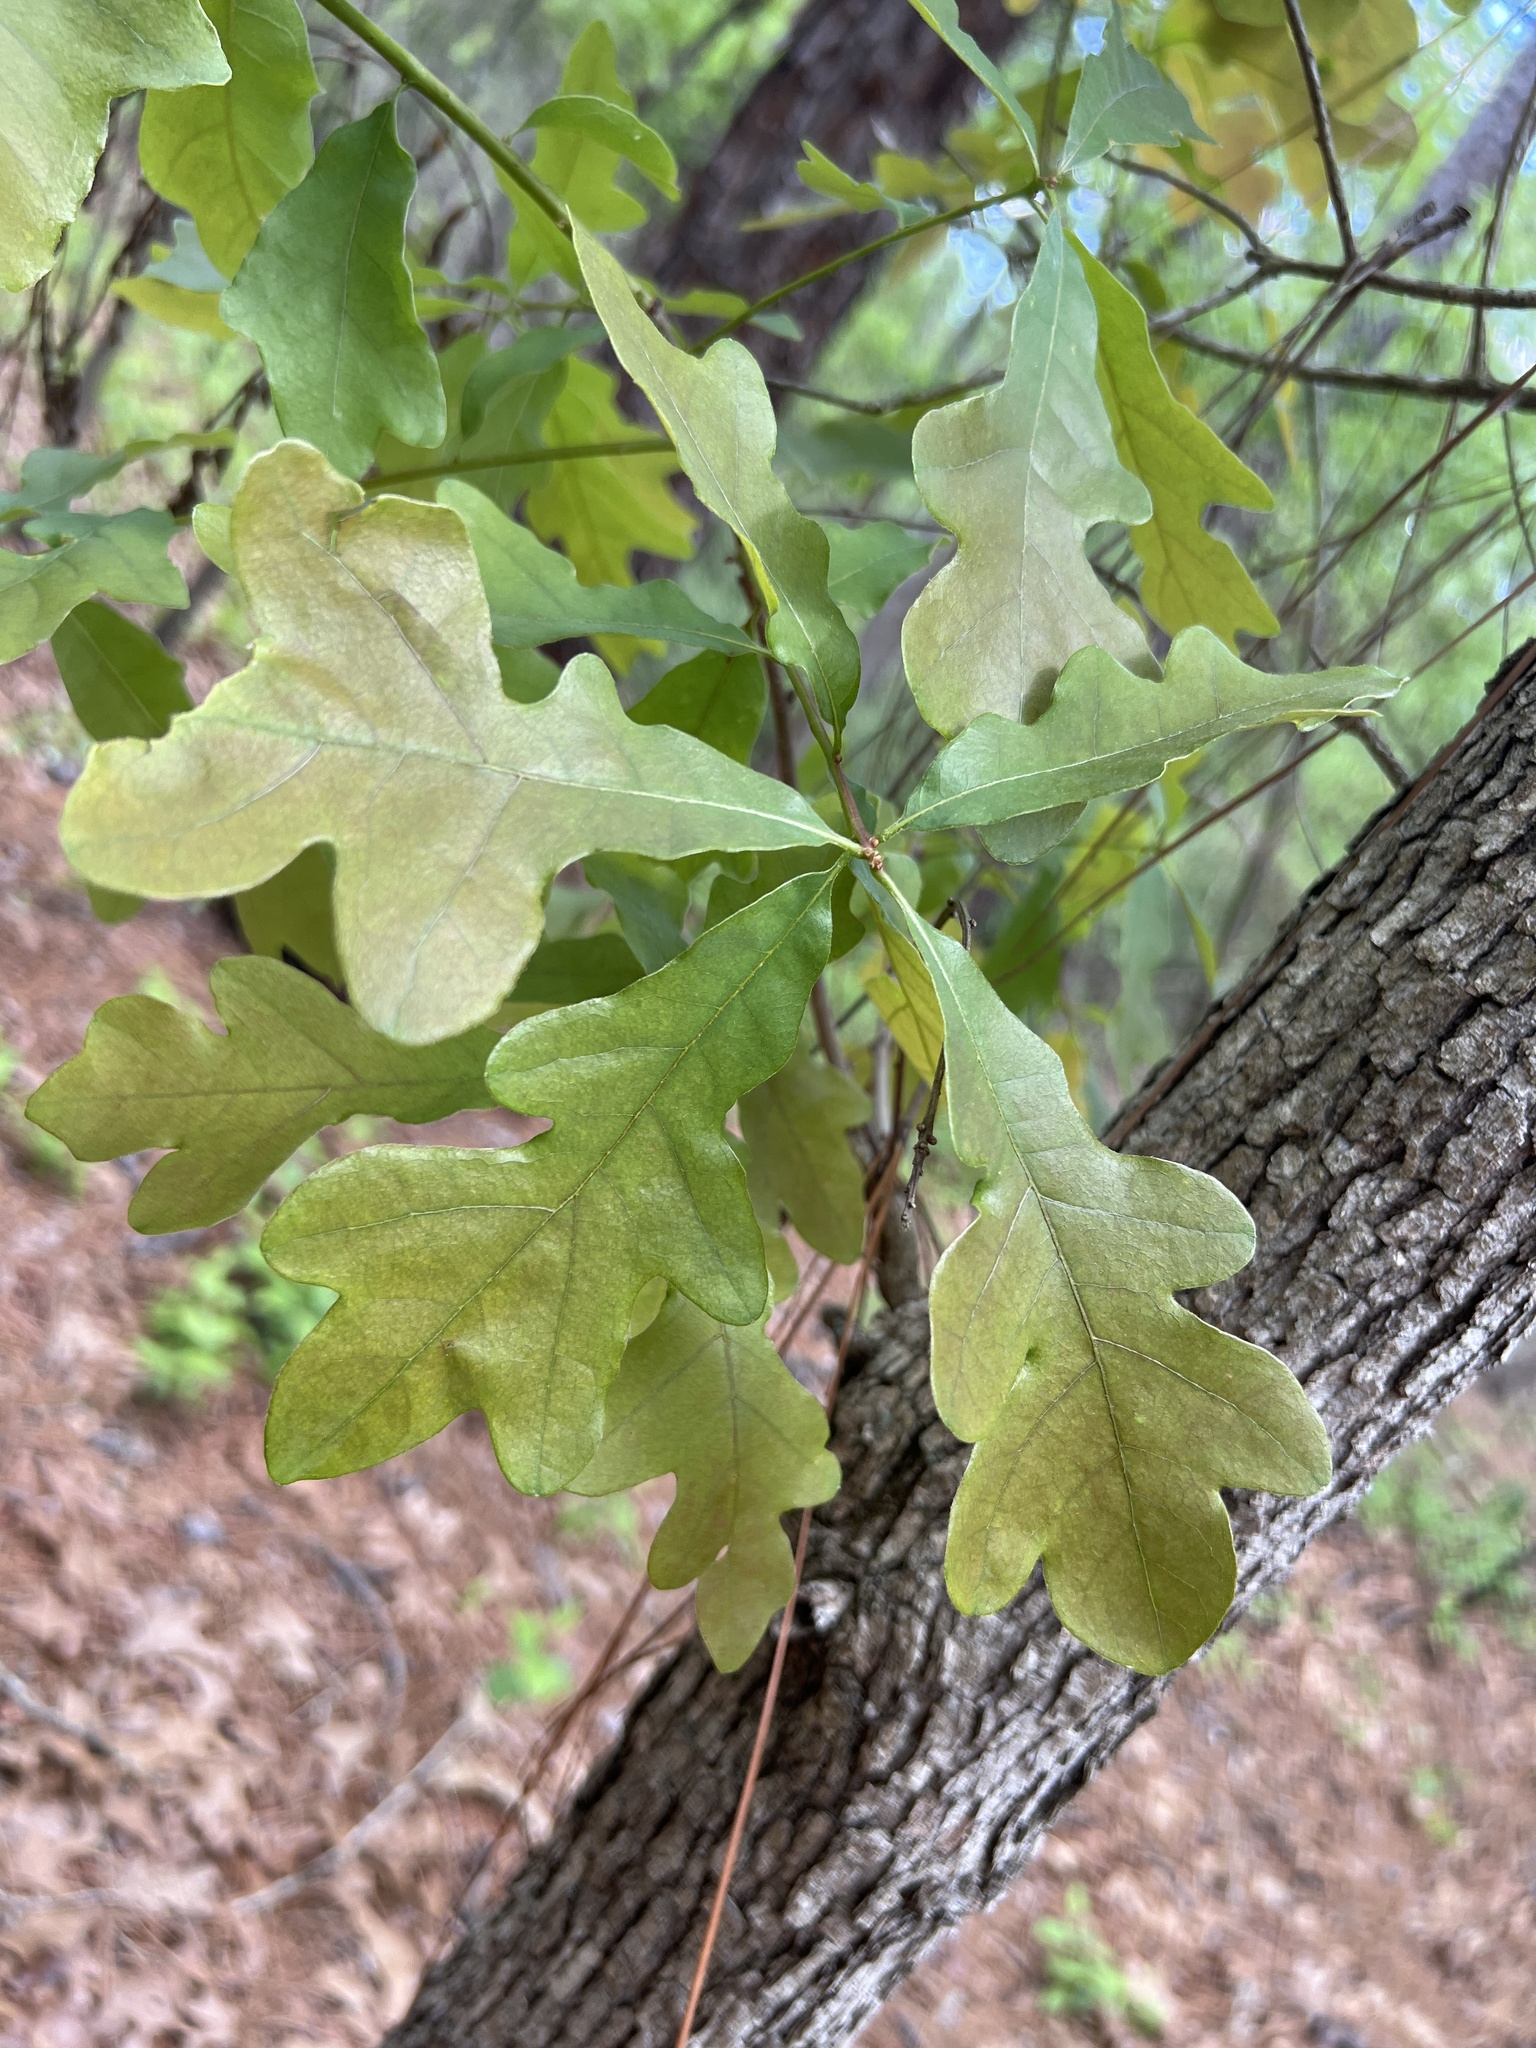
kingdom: Plantae
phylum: Tracheophyta
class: Magnoliopsida
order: Fagales
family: Fagaceae
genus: Quercus
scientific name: Quercus margaretiae
